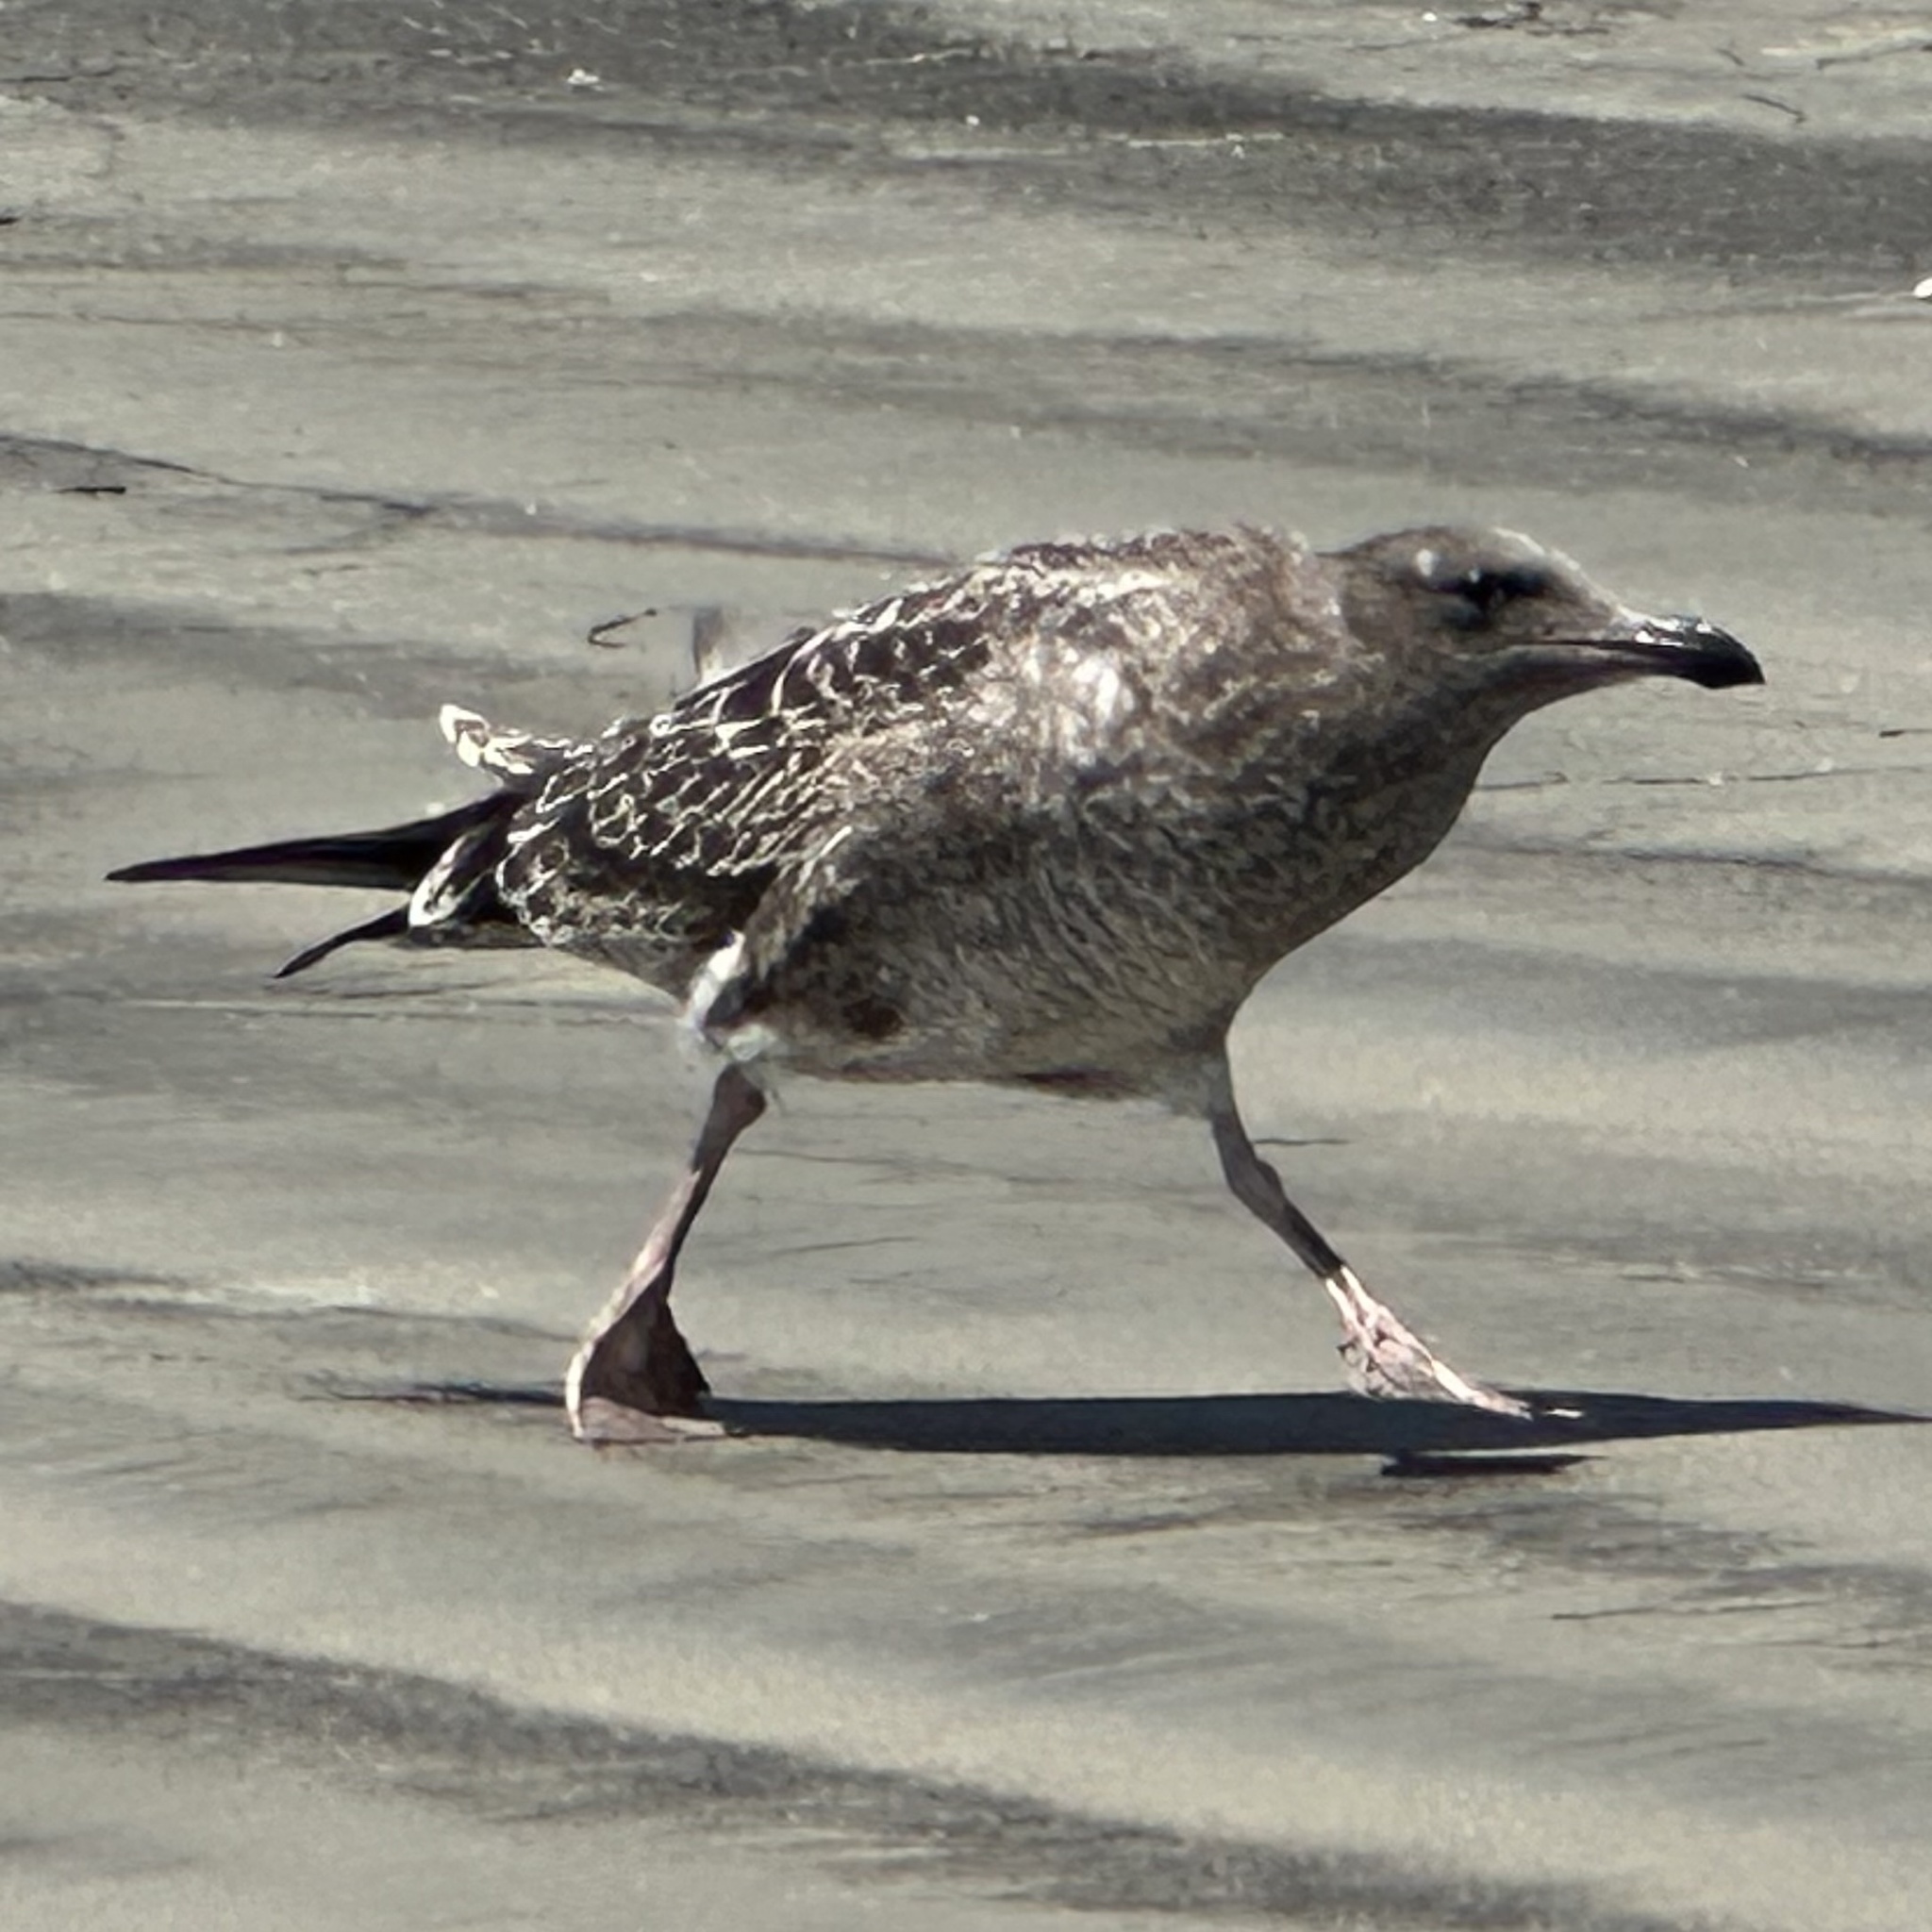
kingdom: Animalia
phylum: Chordata
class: Aves
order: Charadriiformes
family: Laridae
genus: Larus
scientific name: Larus occidentalis
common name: Western gull
